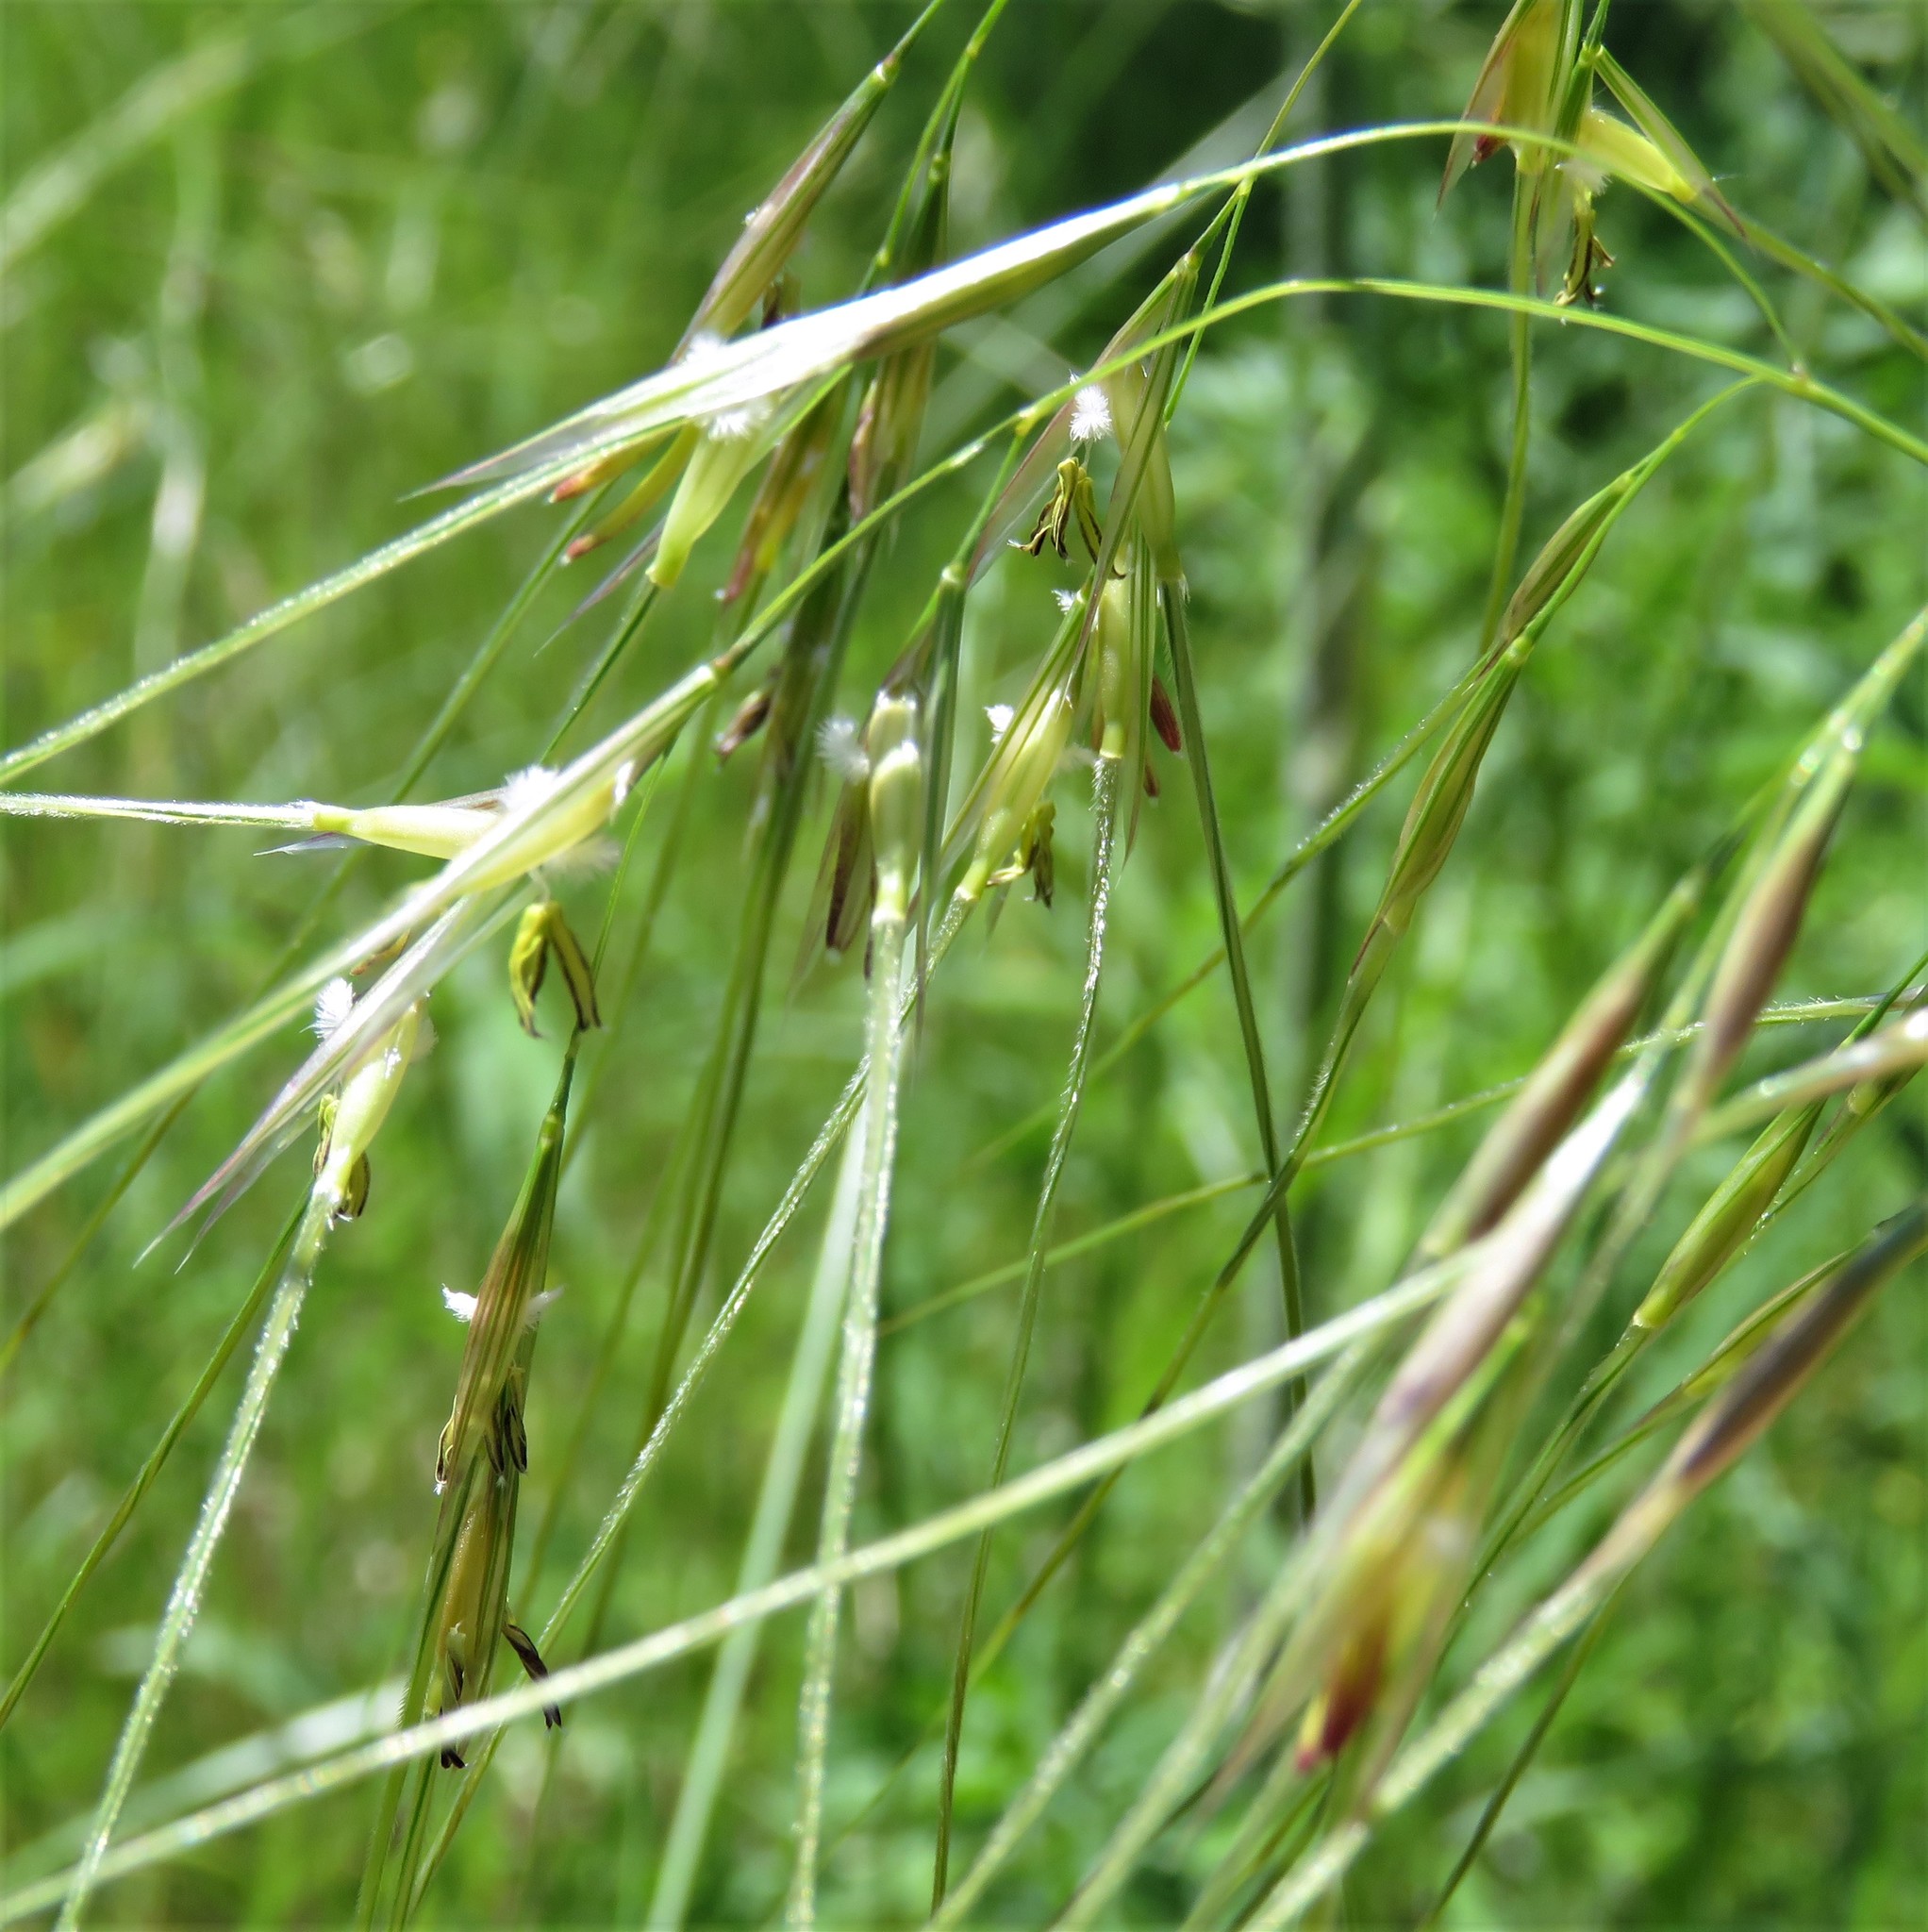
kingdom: Plantae
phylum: Tracheophyta
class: Liliopsida
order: Poales
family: Poaceae
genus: Nassella
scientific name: Nassella leucotricha
